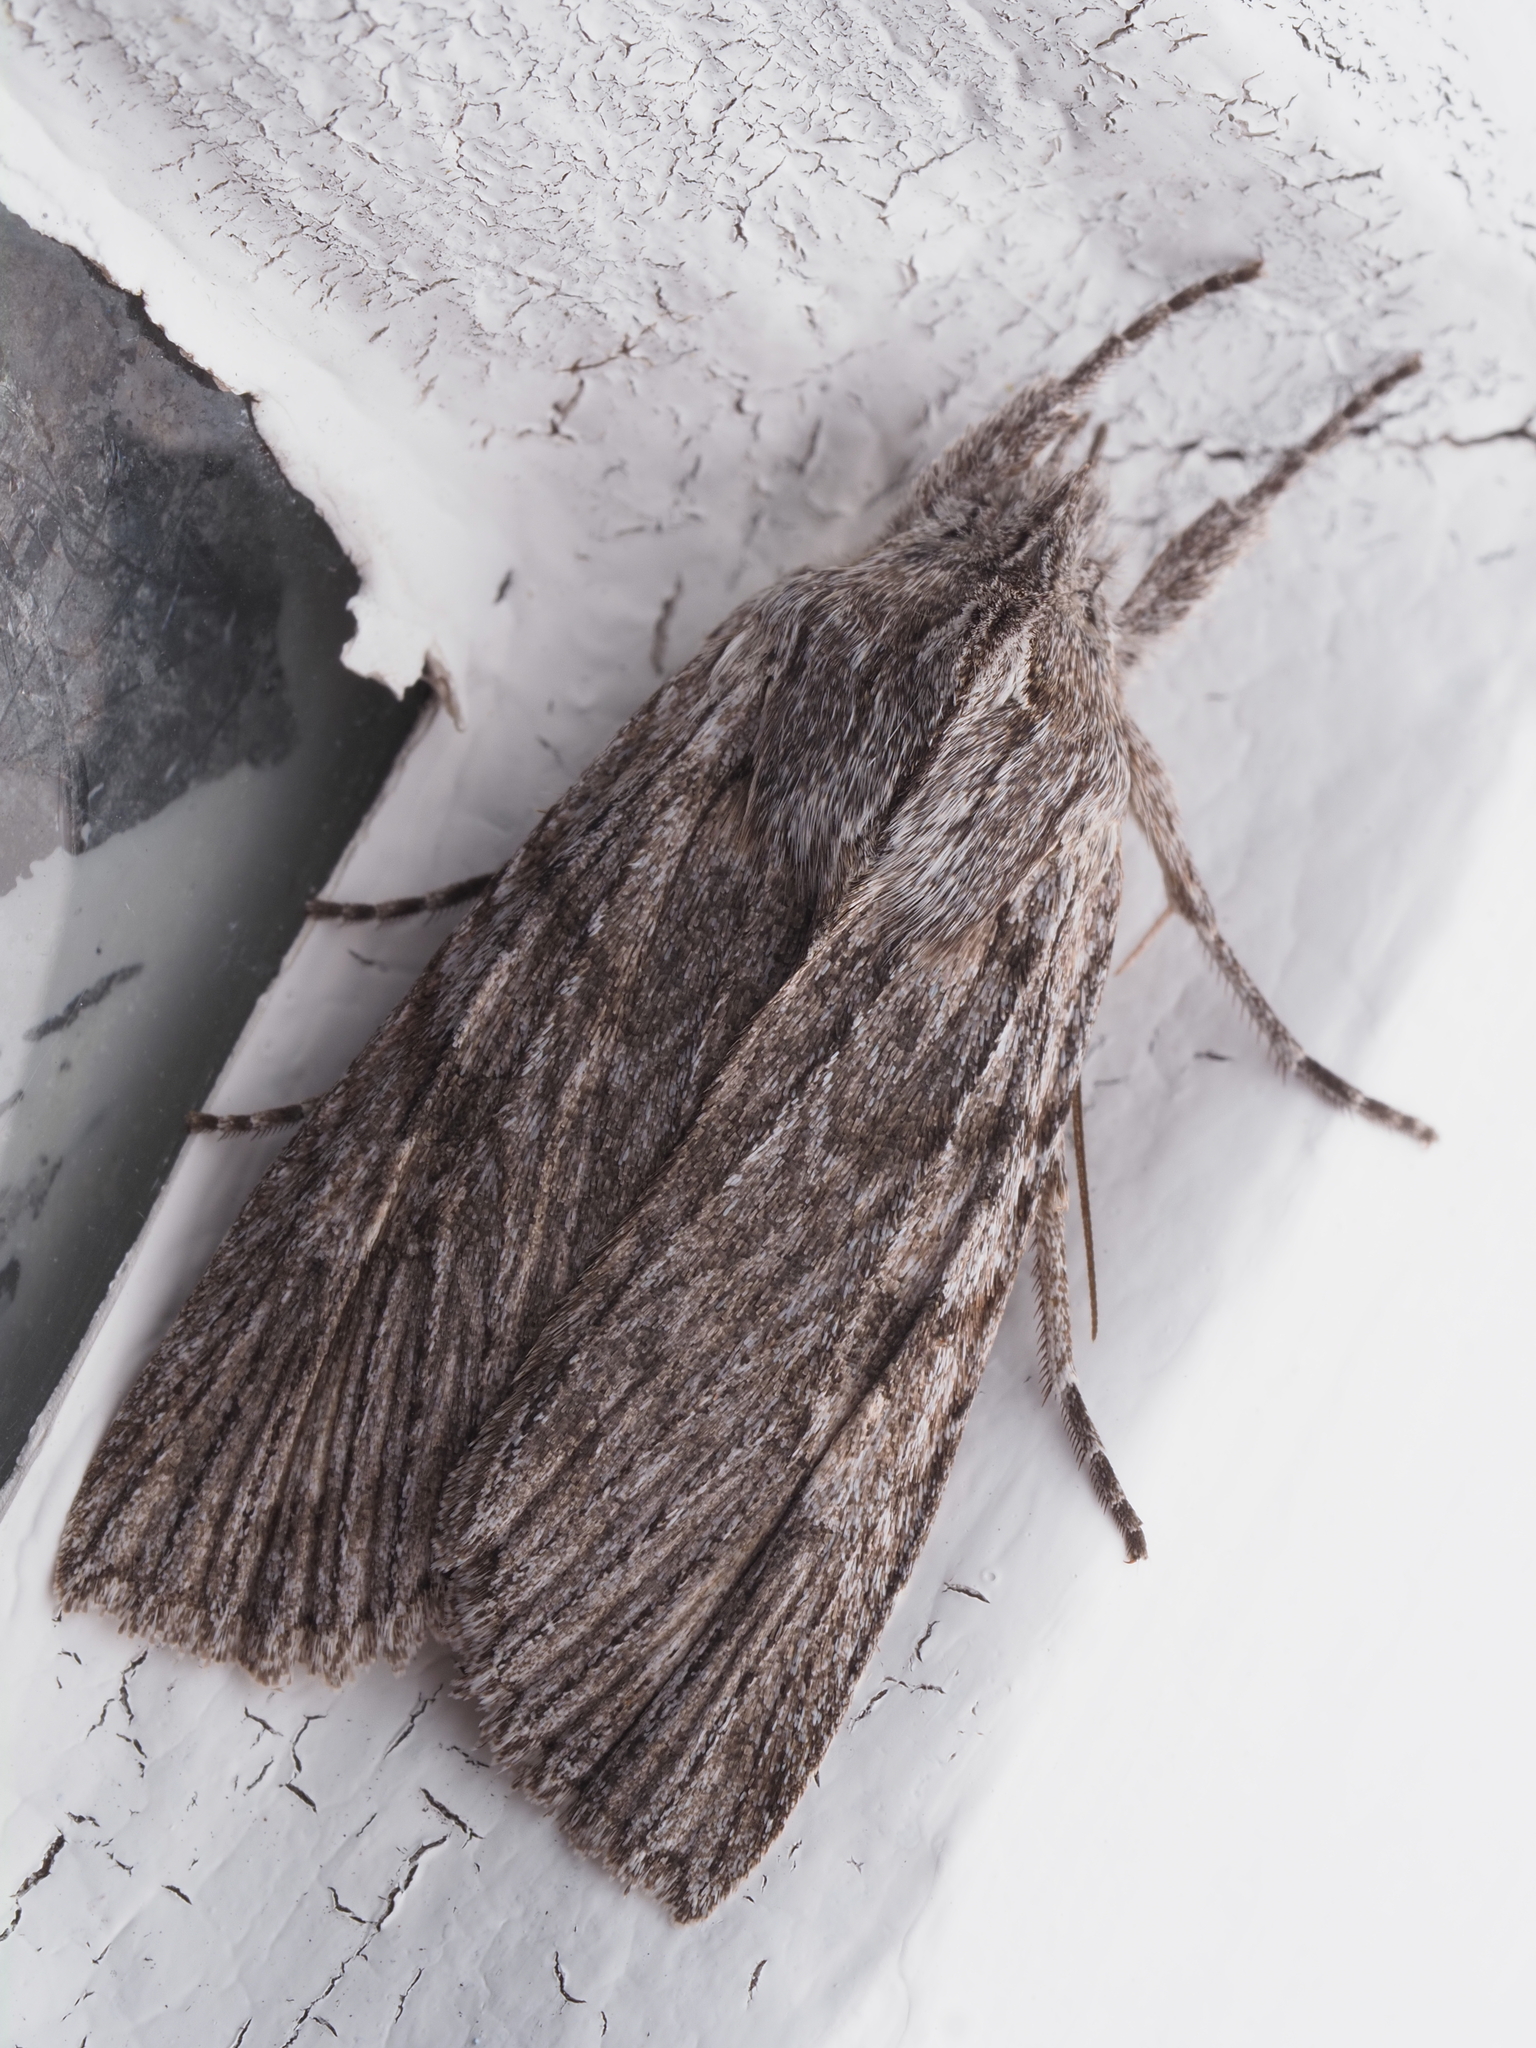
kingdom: Animalia
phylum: Arthropoda
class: Insecta
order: Lepidoptera
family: Noctuidae
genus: Physetica
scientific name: Physetica phricias
